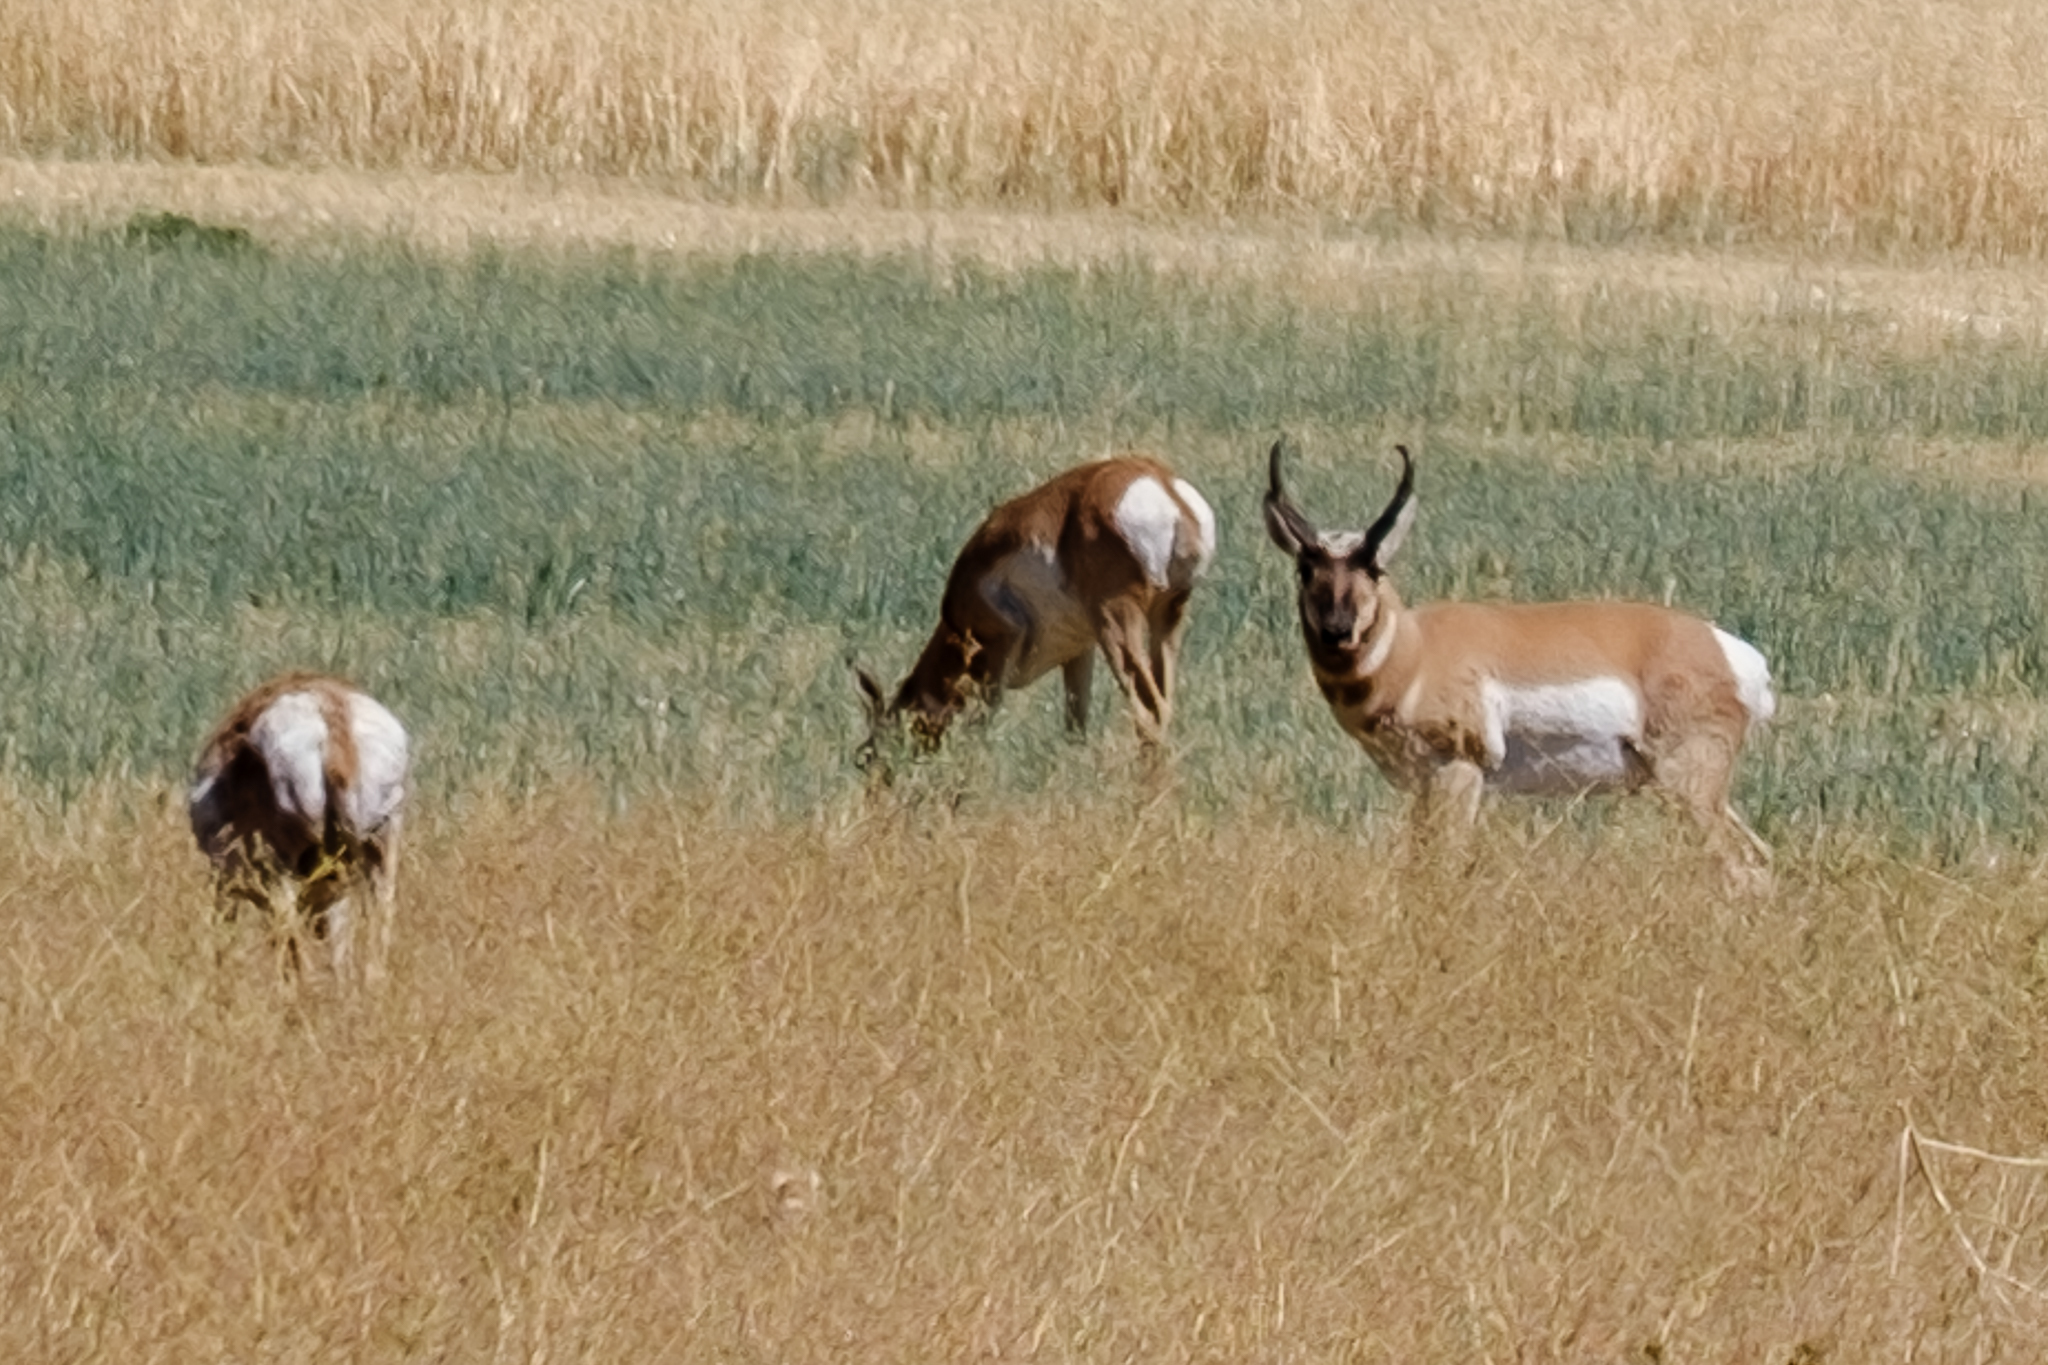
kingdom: Animalia
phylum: Chordata
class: Mammalia
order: Artiodactyla
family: Antilocapridae
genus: Antilocapra
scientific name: Antilocapra americana
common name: Pronghorn
